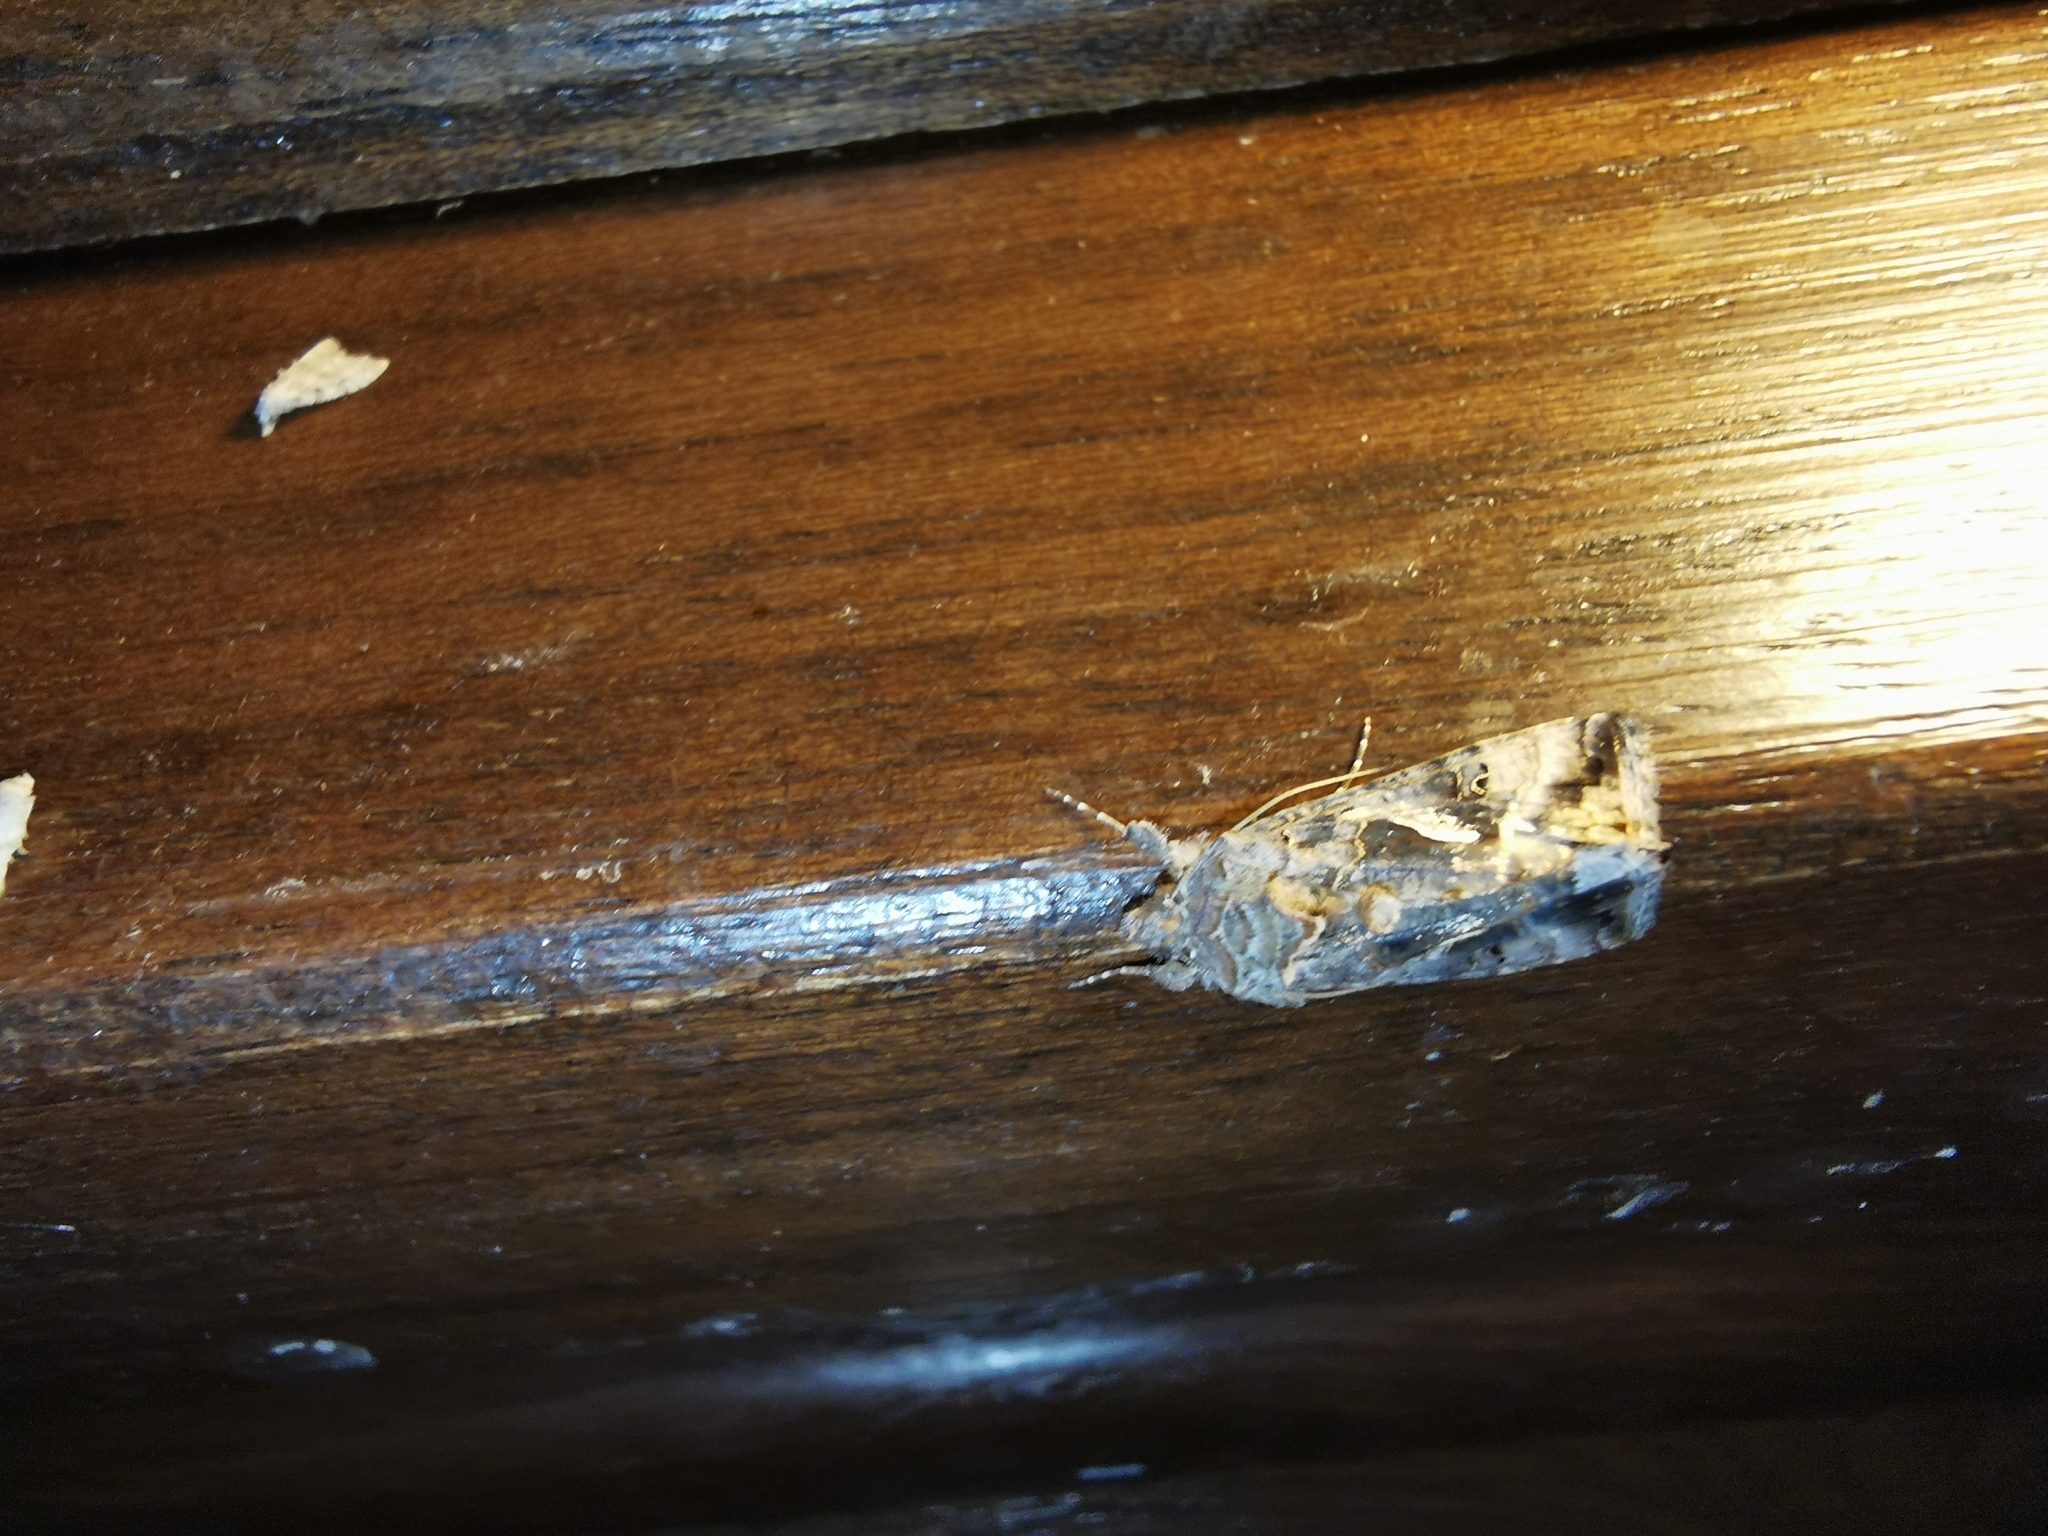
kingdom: Animalia
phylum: Arthropoda
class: Insecta
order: Lepidoptera
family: Noctuidae
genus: Autographa
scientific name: Autographa gamma
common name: Silver y
